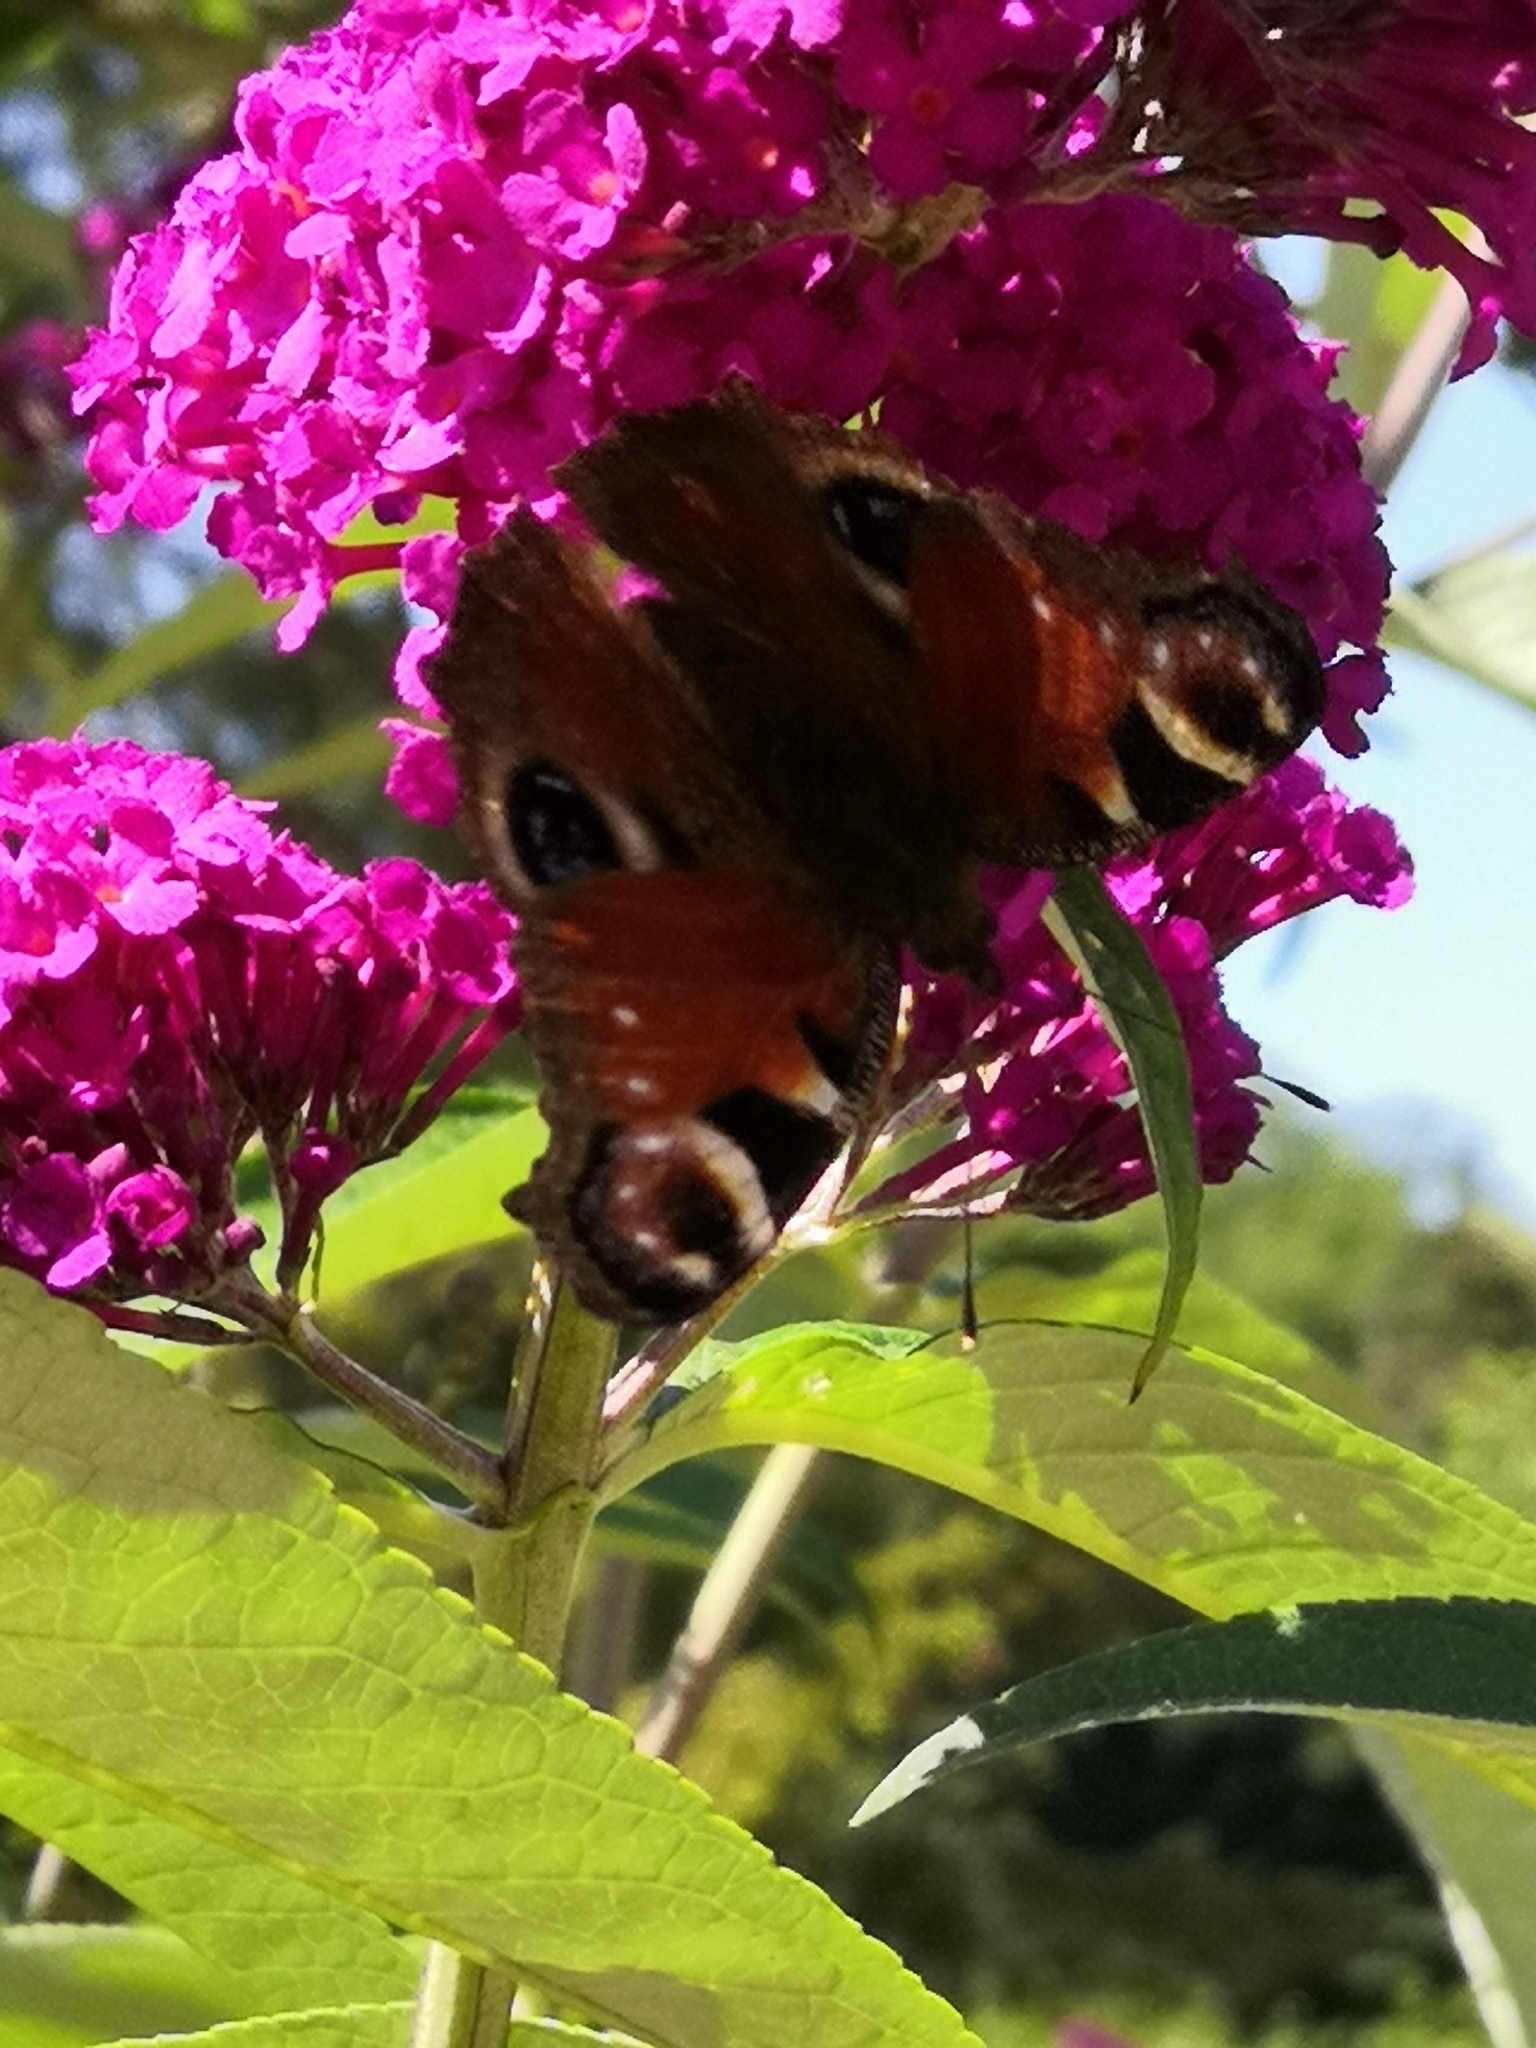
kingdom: Animalia
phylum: Arthropoda
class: Insecta
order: Lepidoptera
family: Nymphalidae
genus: Aglais
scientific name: Aglais io
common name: Peacock
